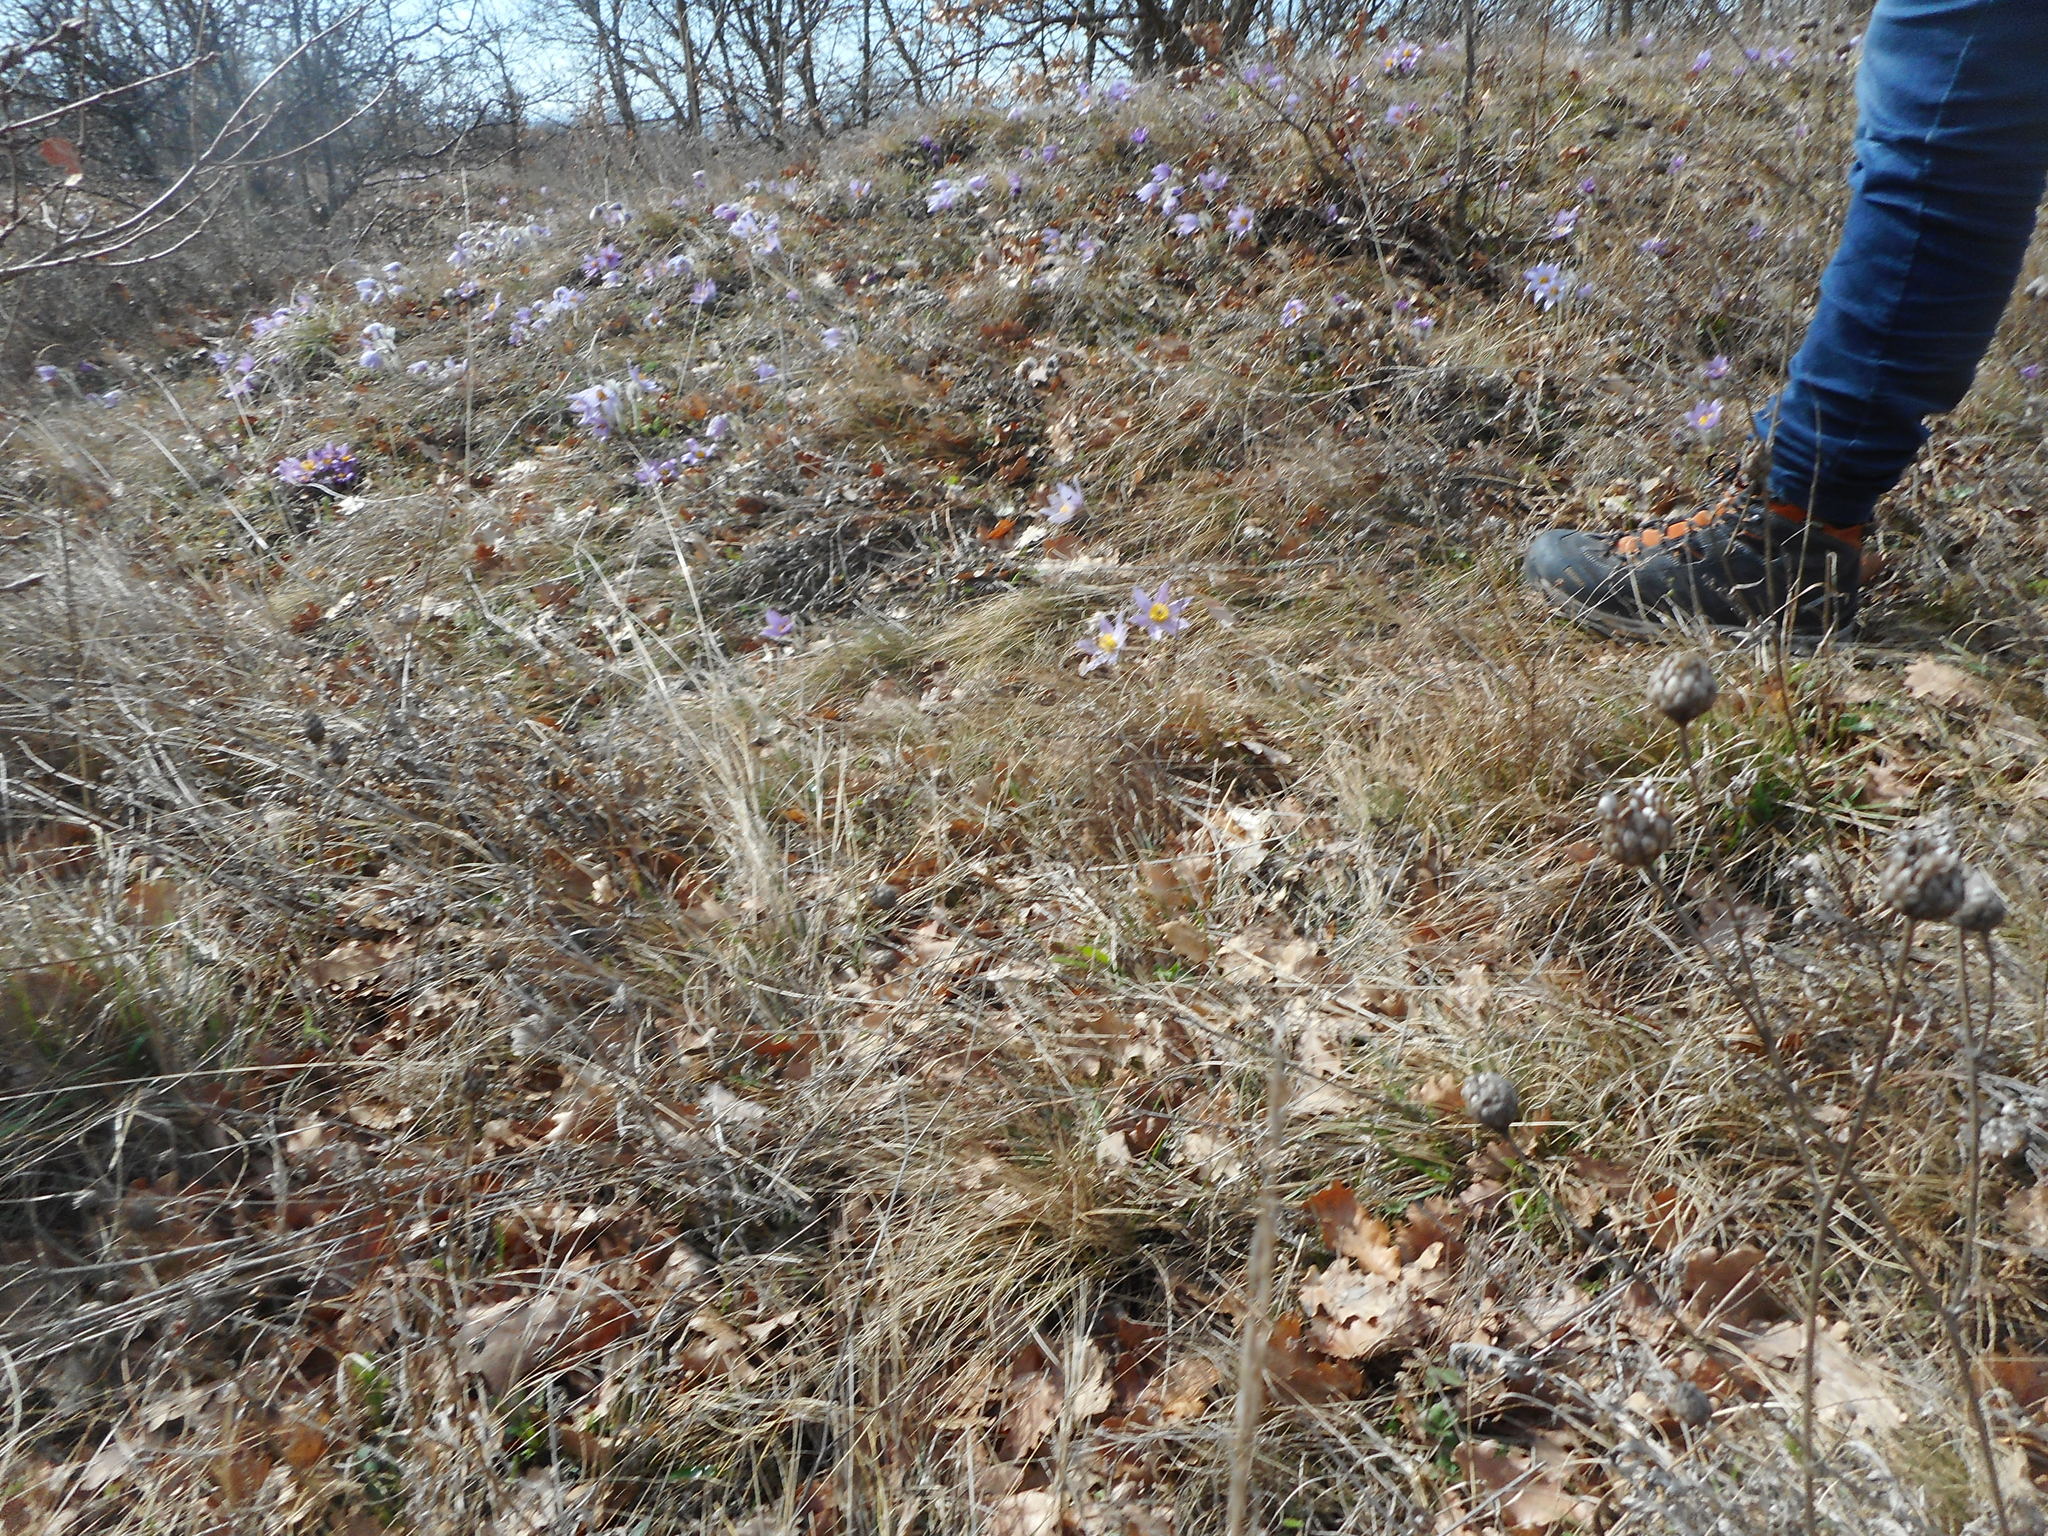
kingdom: Plantae
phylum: Tracheophyta
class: Magnoliopsida
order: Ranunculales
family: Ranunculaceae
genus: Pulsatilla
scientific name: Pulsatilla grandis
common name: Greater pasque flower
